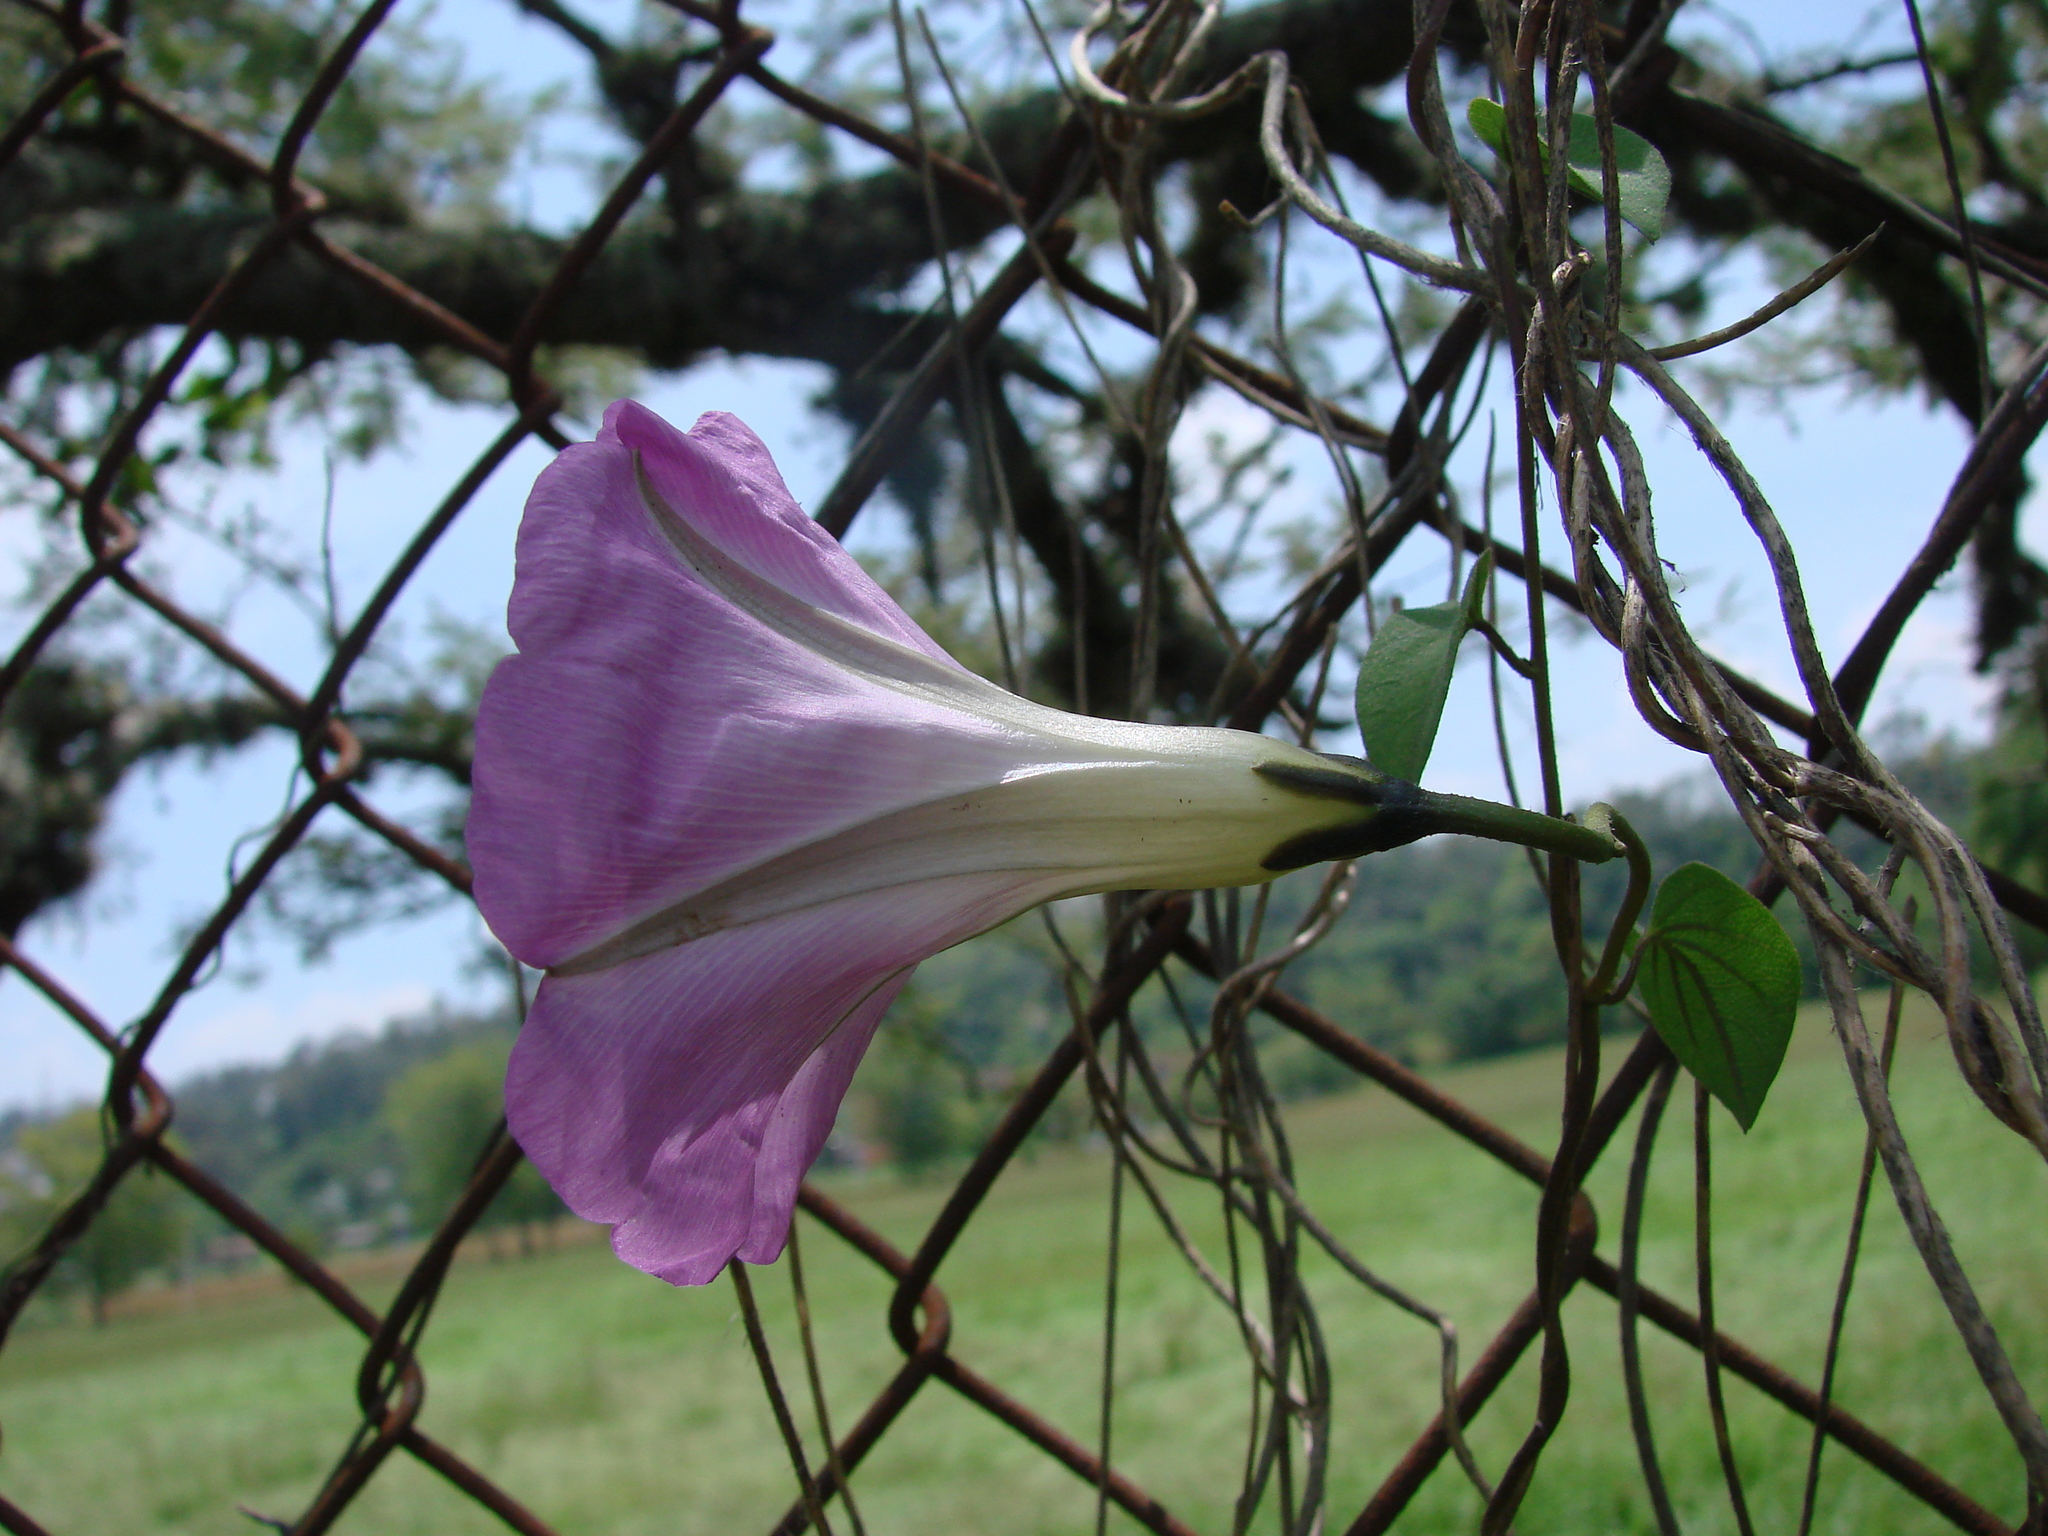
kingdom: Plantae
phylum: Tracheophyta
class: Magnoliopsida
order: Solanales
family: Convolvulaceae
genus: Ipomoea
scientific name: Ipomoea orizabensis
